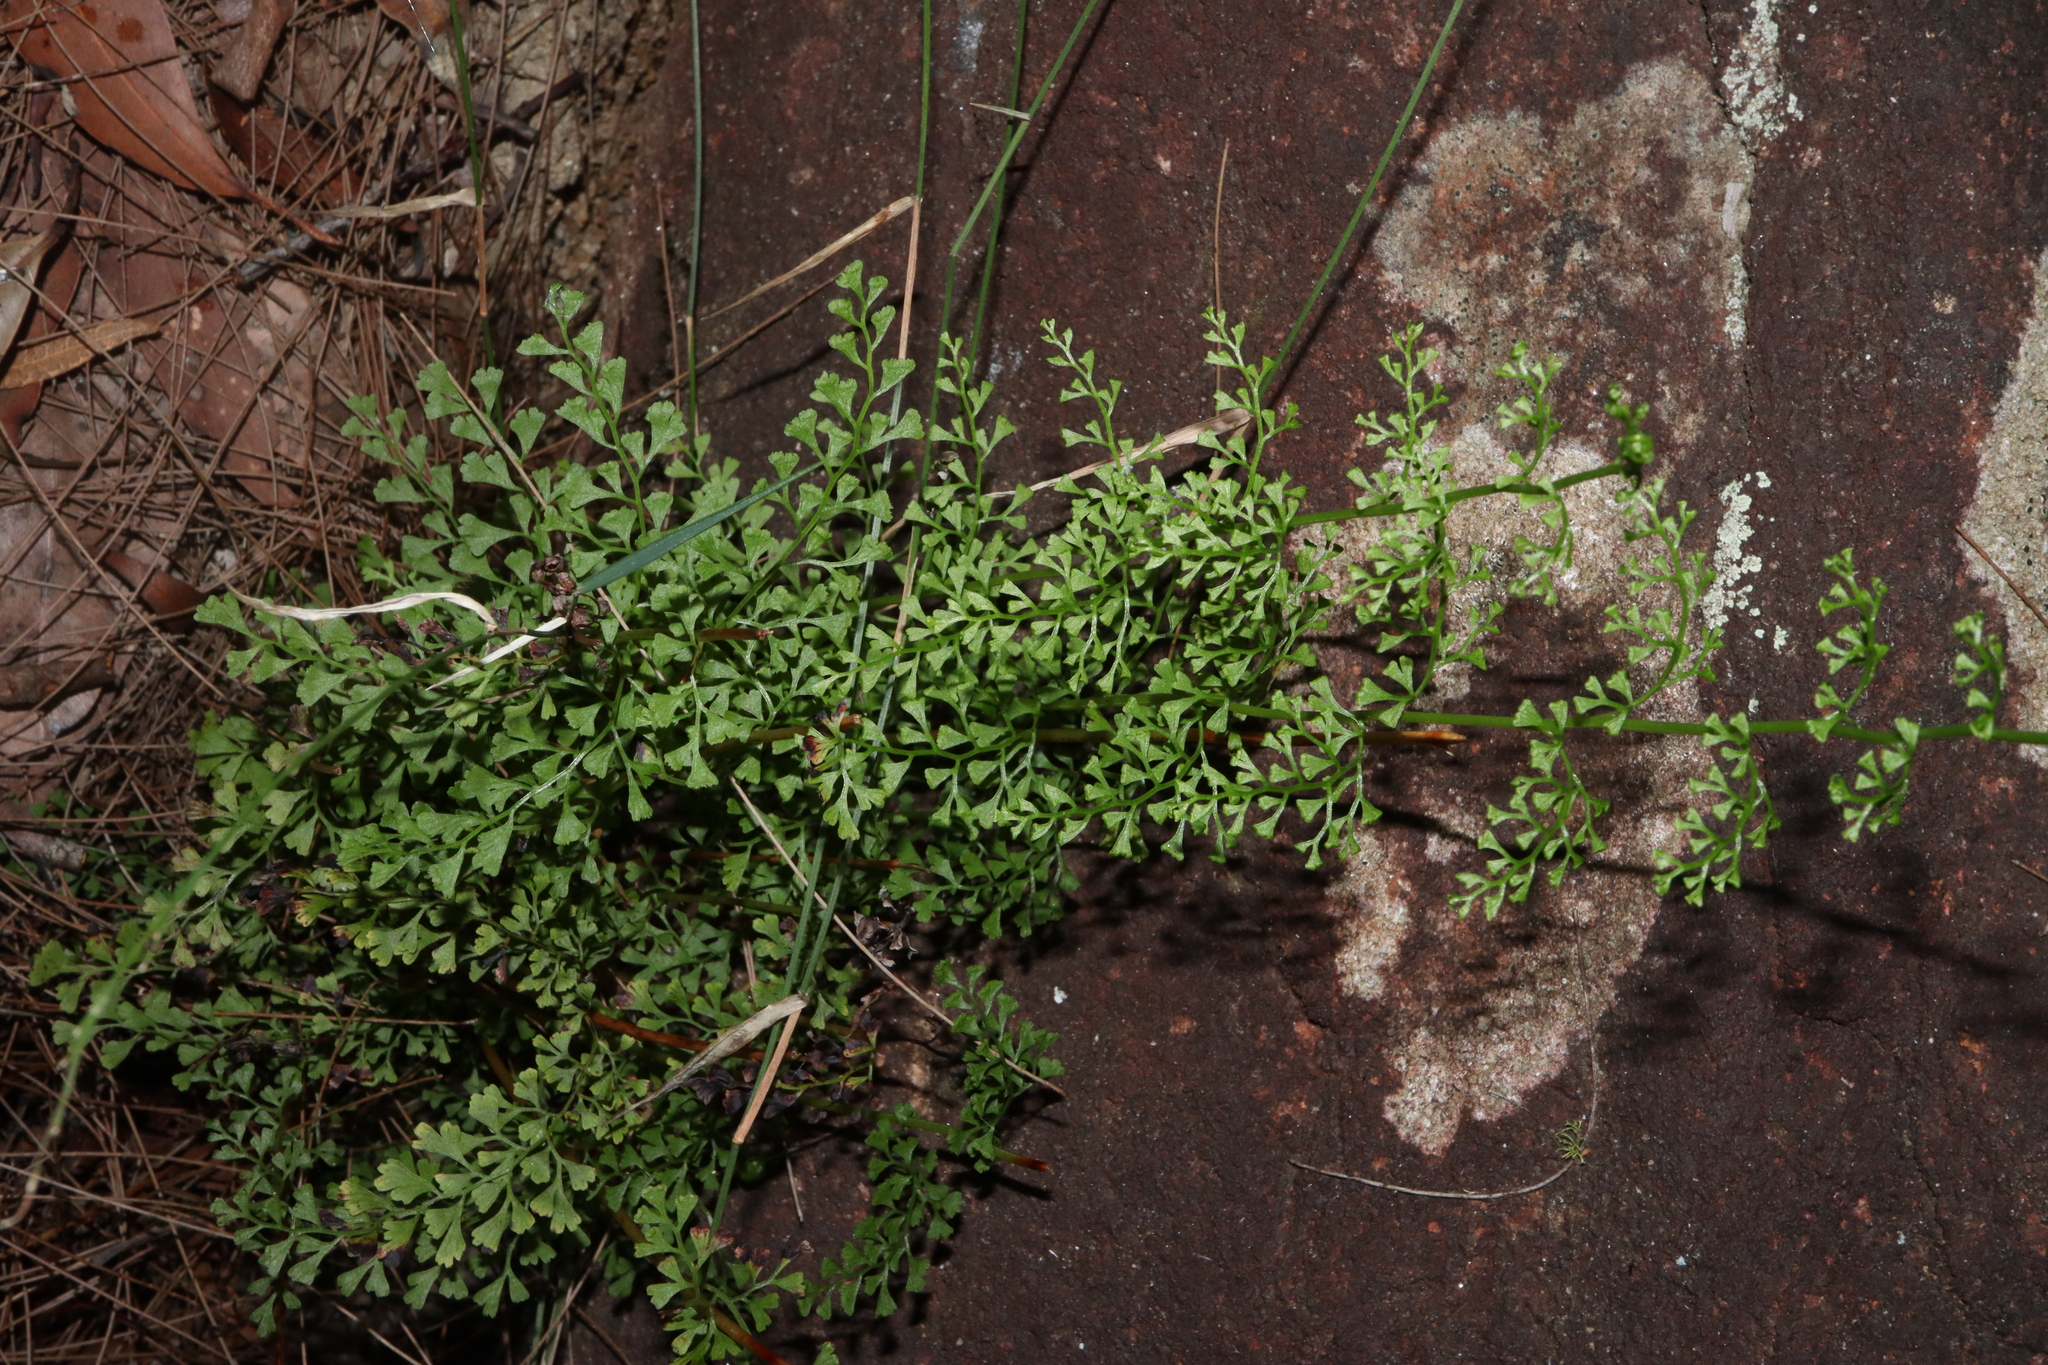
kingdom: Plantae
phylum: Tracheophyta
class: Polypodiopsida
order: Polypodiales
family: Lindsaeaceae
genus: Lindsaea
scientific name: Lindsaea microphylla
